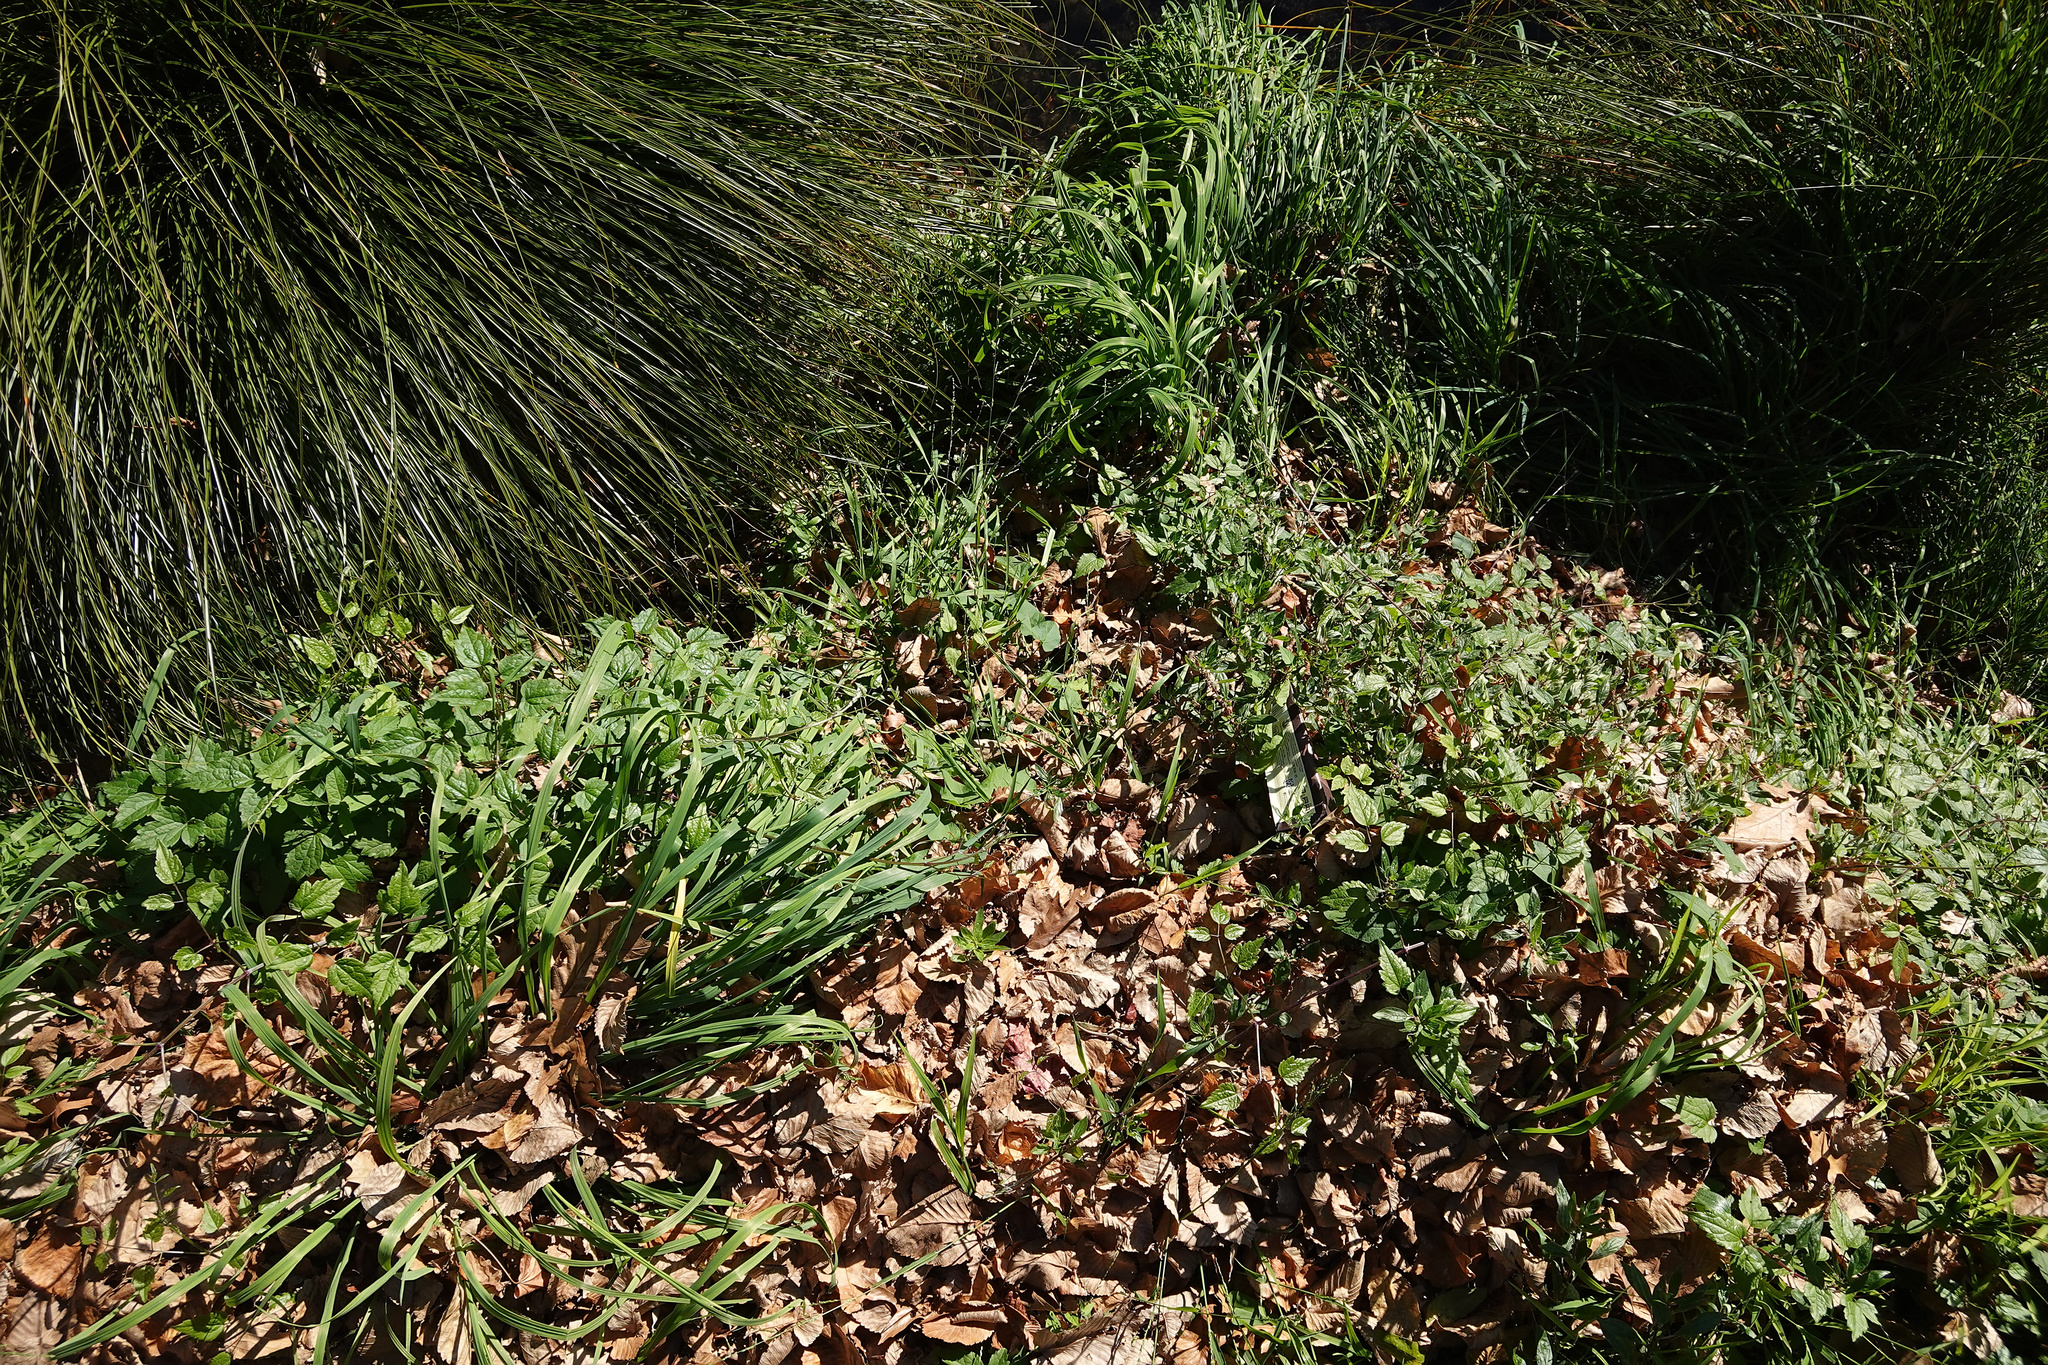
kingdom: Plantae
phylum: Tracheophyta
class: Magnoliopsida
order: Ranunculales
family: Ranunculaceae
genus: Clematis
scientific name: Clematis vitalba
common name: Evergreen clematis
